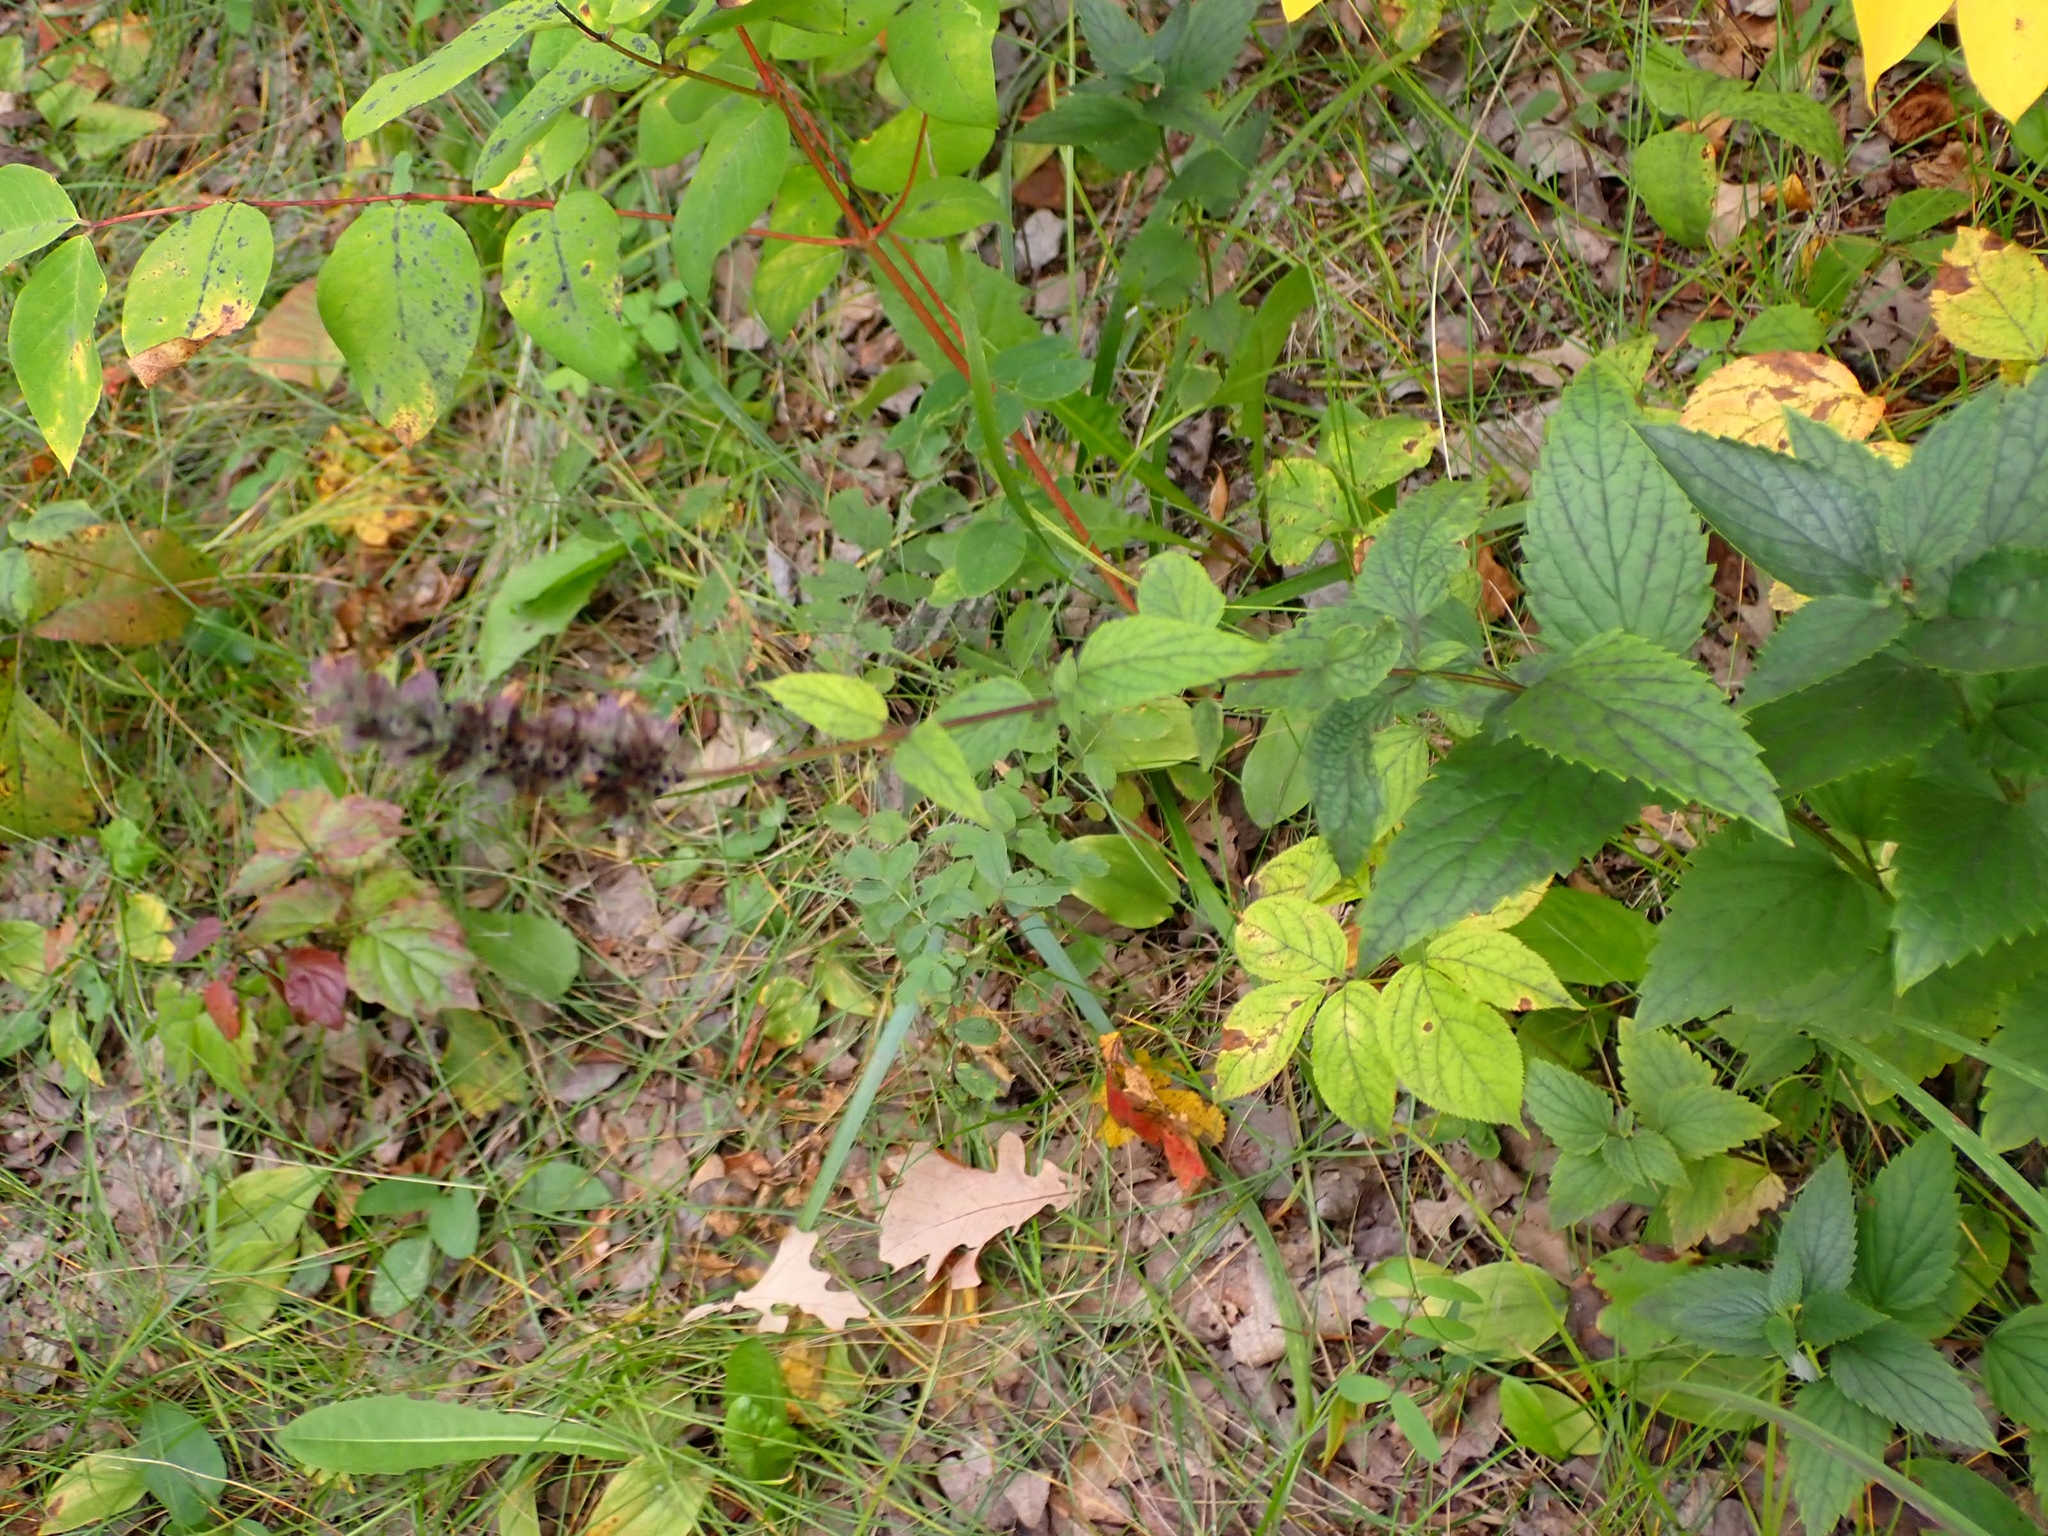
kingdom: Plantae
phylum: Tracheophyta
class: Magnoliopsida
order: Lamiales
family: Lamiaceae
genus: Agastache
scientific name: Agastache foeniculum
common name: Anise hyssop
